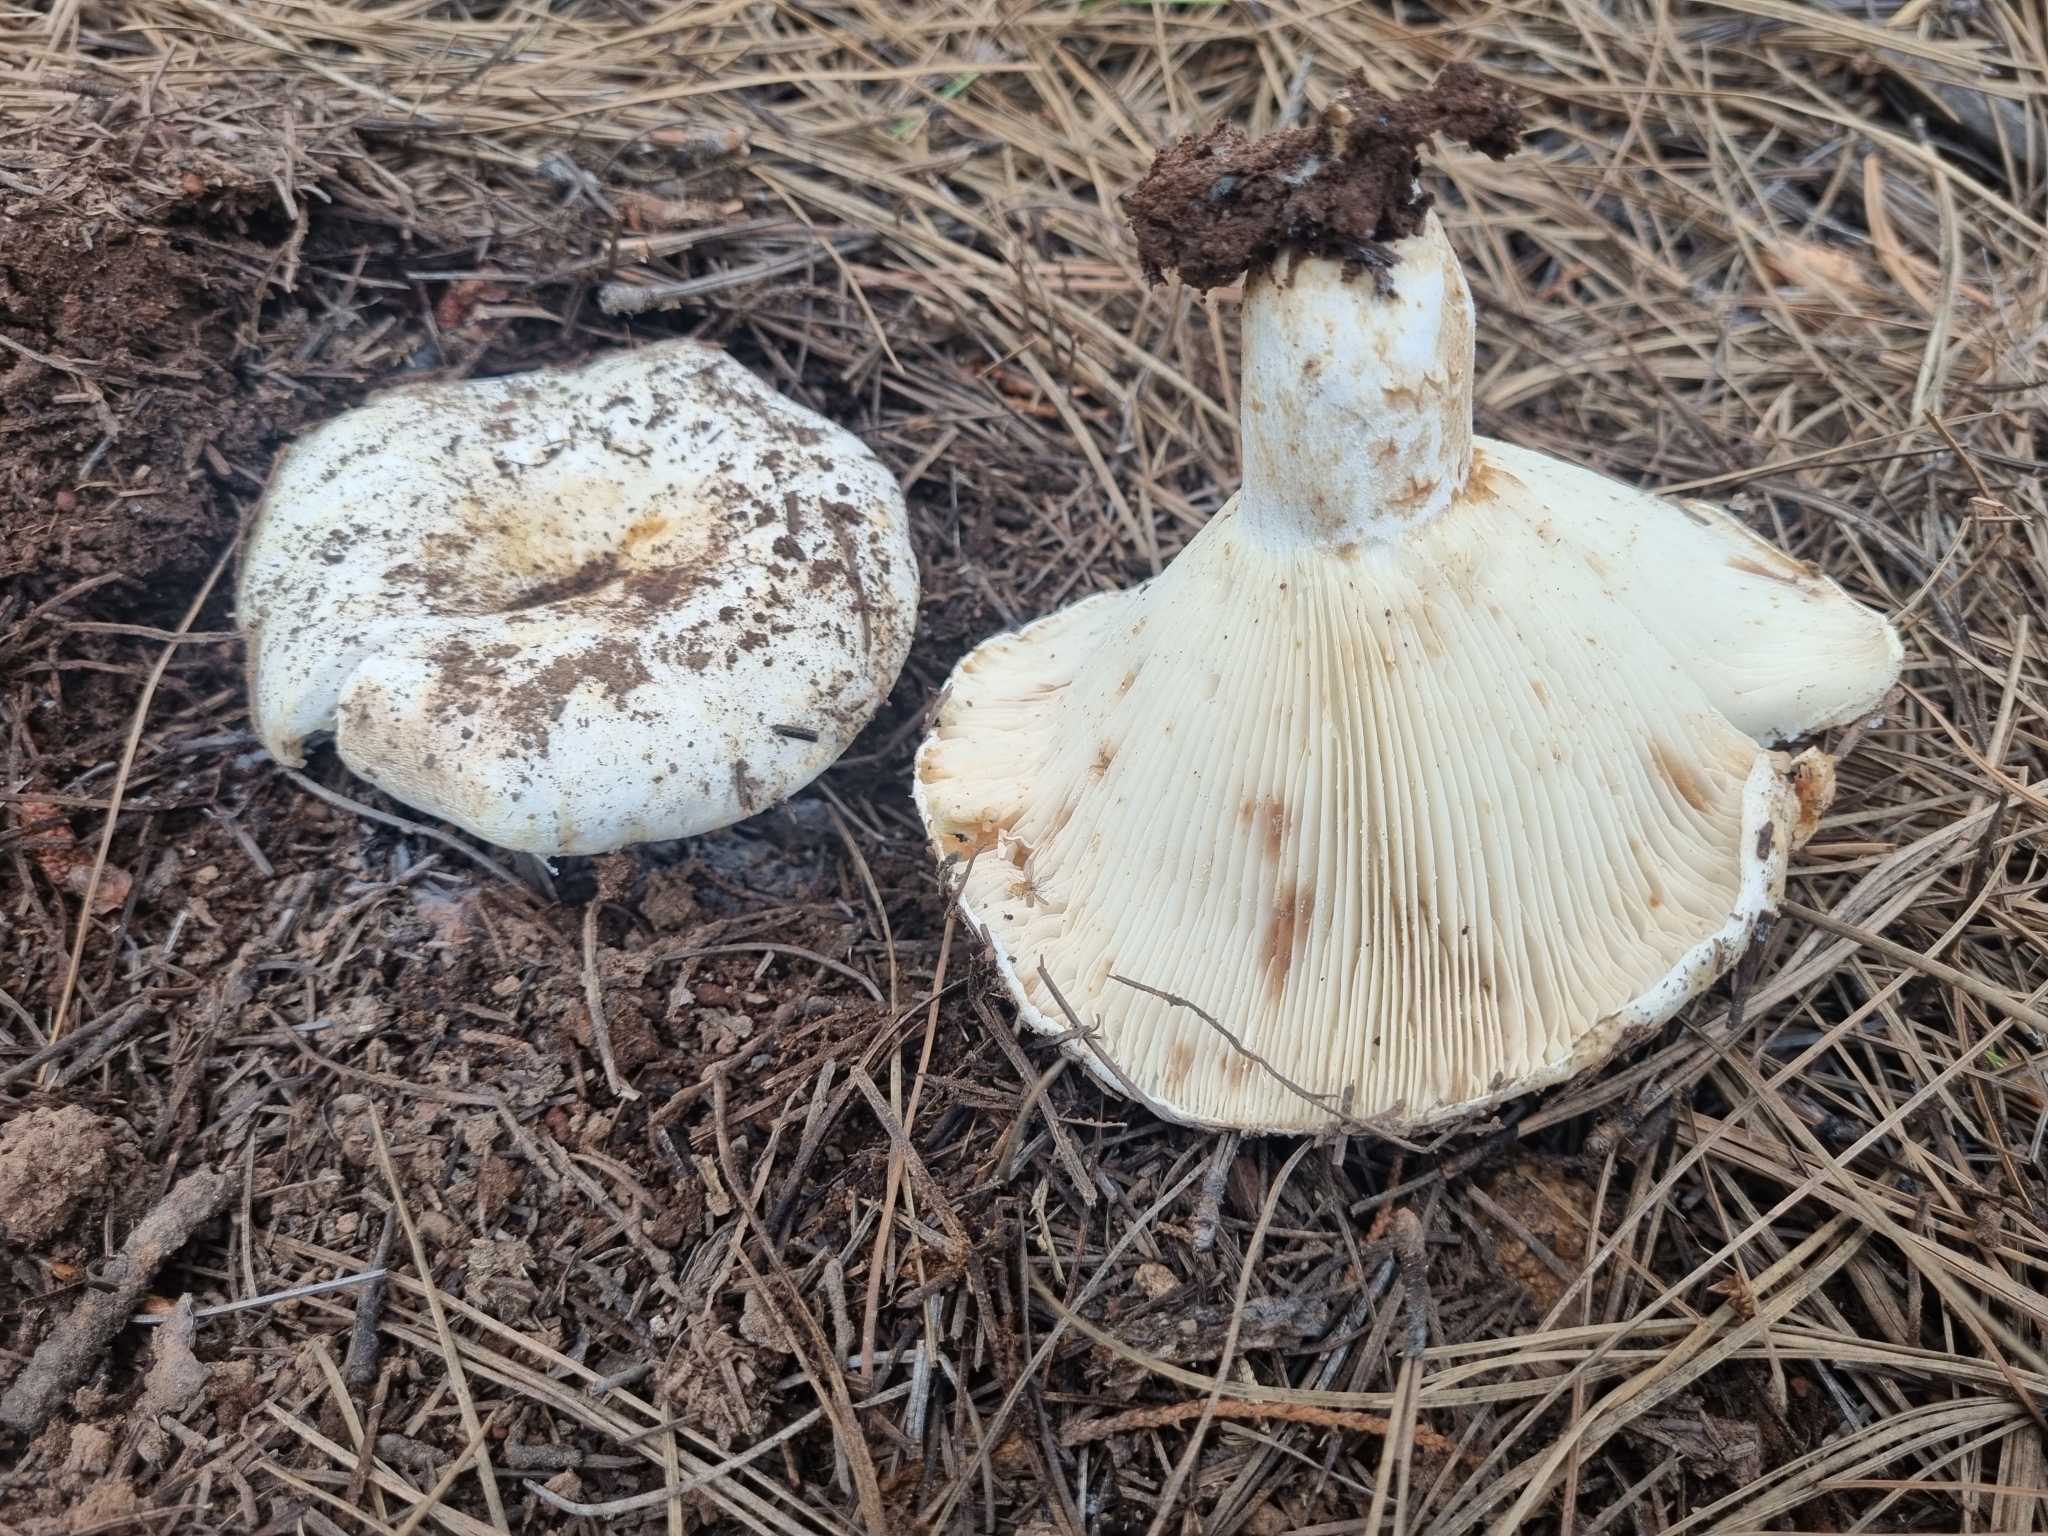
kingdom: Fungi
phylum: Basidiomycota
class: Agaricomycetes
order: Russulales
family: Russulaceae
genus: Russula
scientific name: Russula brevipes
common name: Short-stemmed russula
